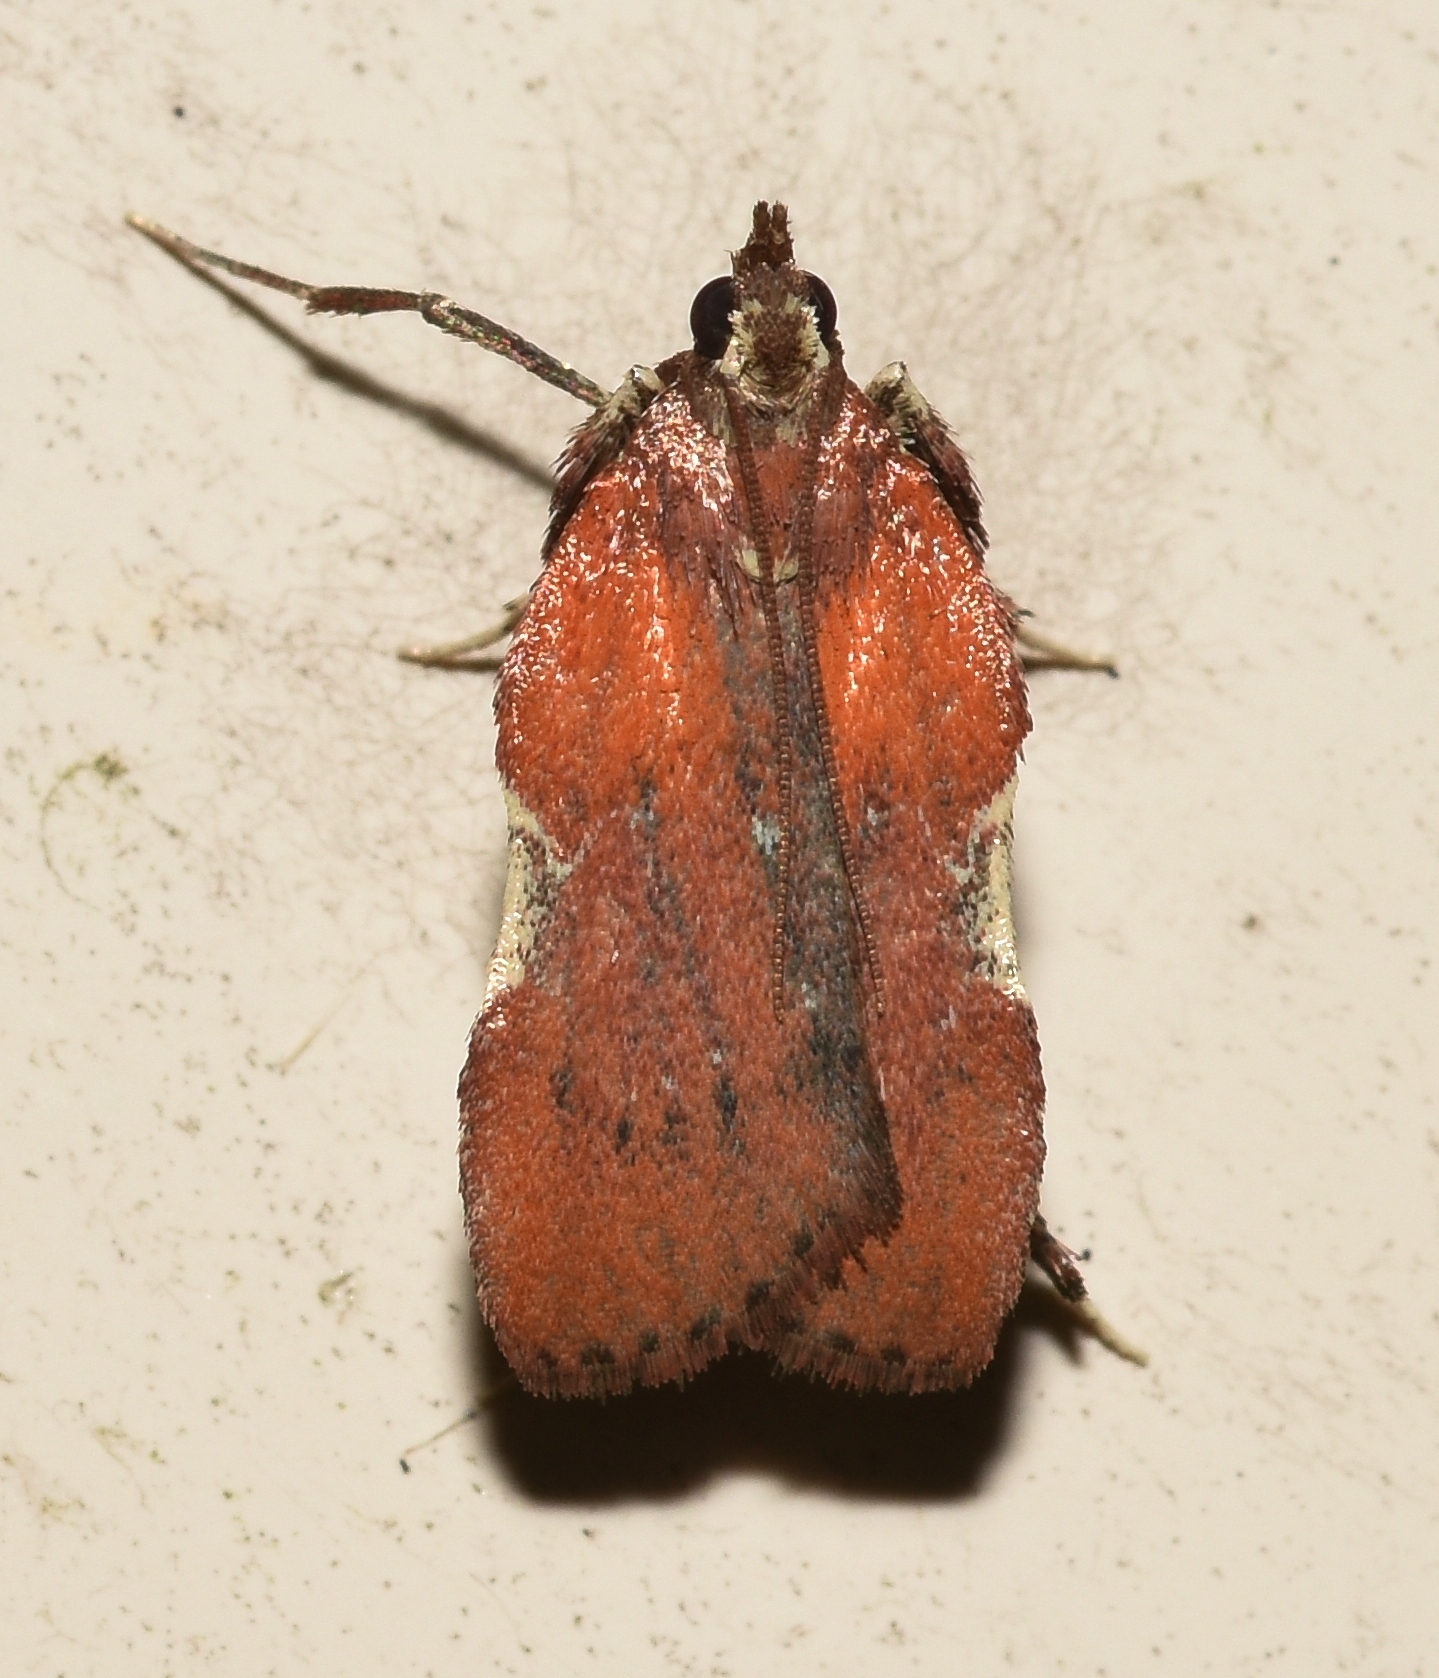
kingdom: Animalia
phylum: Arthropoda
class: Insecta
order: Lepidoptera
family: Pyralidae
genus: Galasa
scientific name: Galasa nigrinodis
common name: Boxwood leaftier moth
